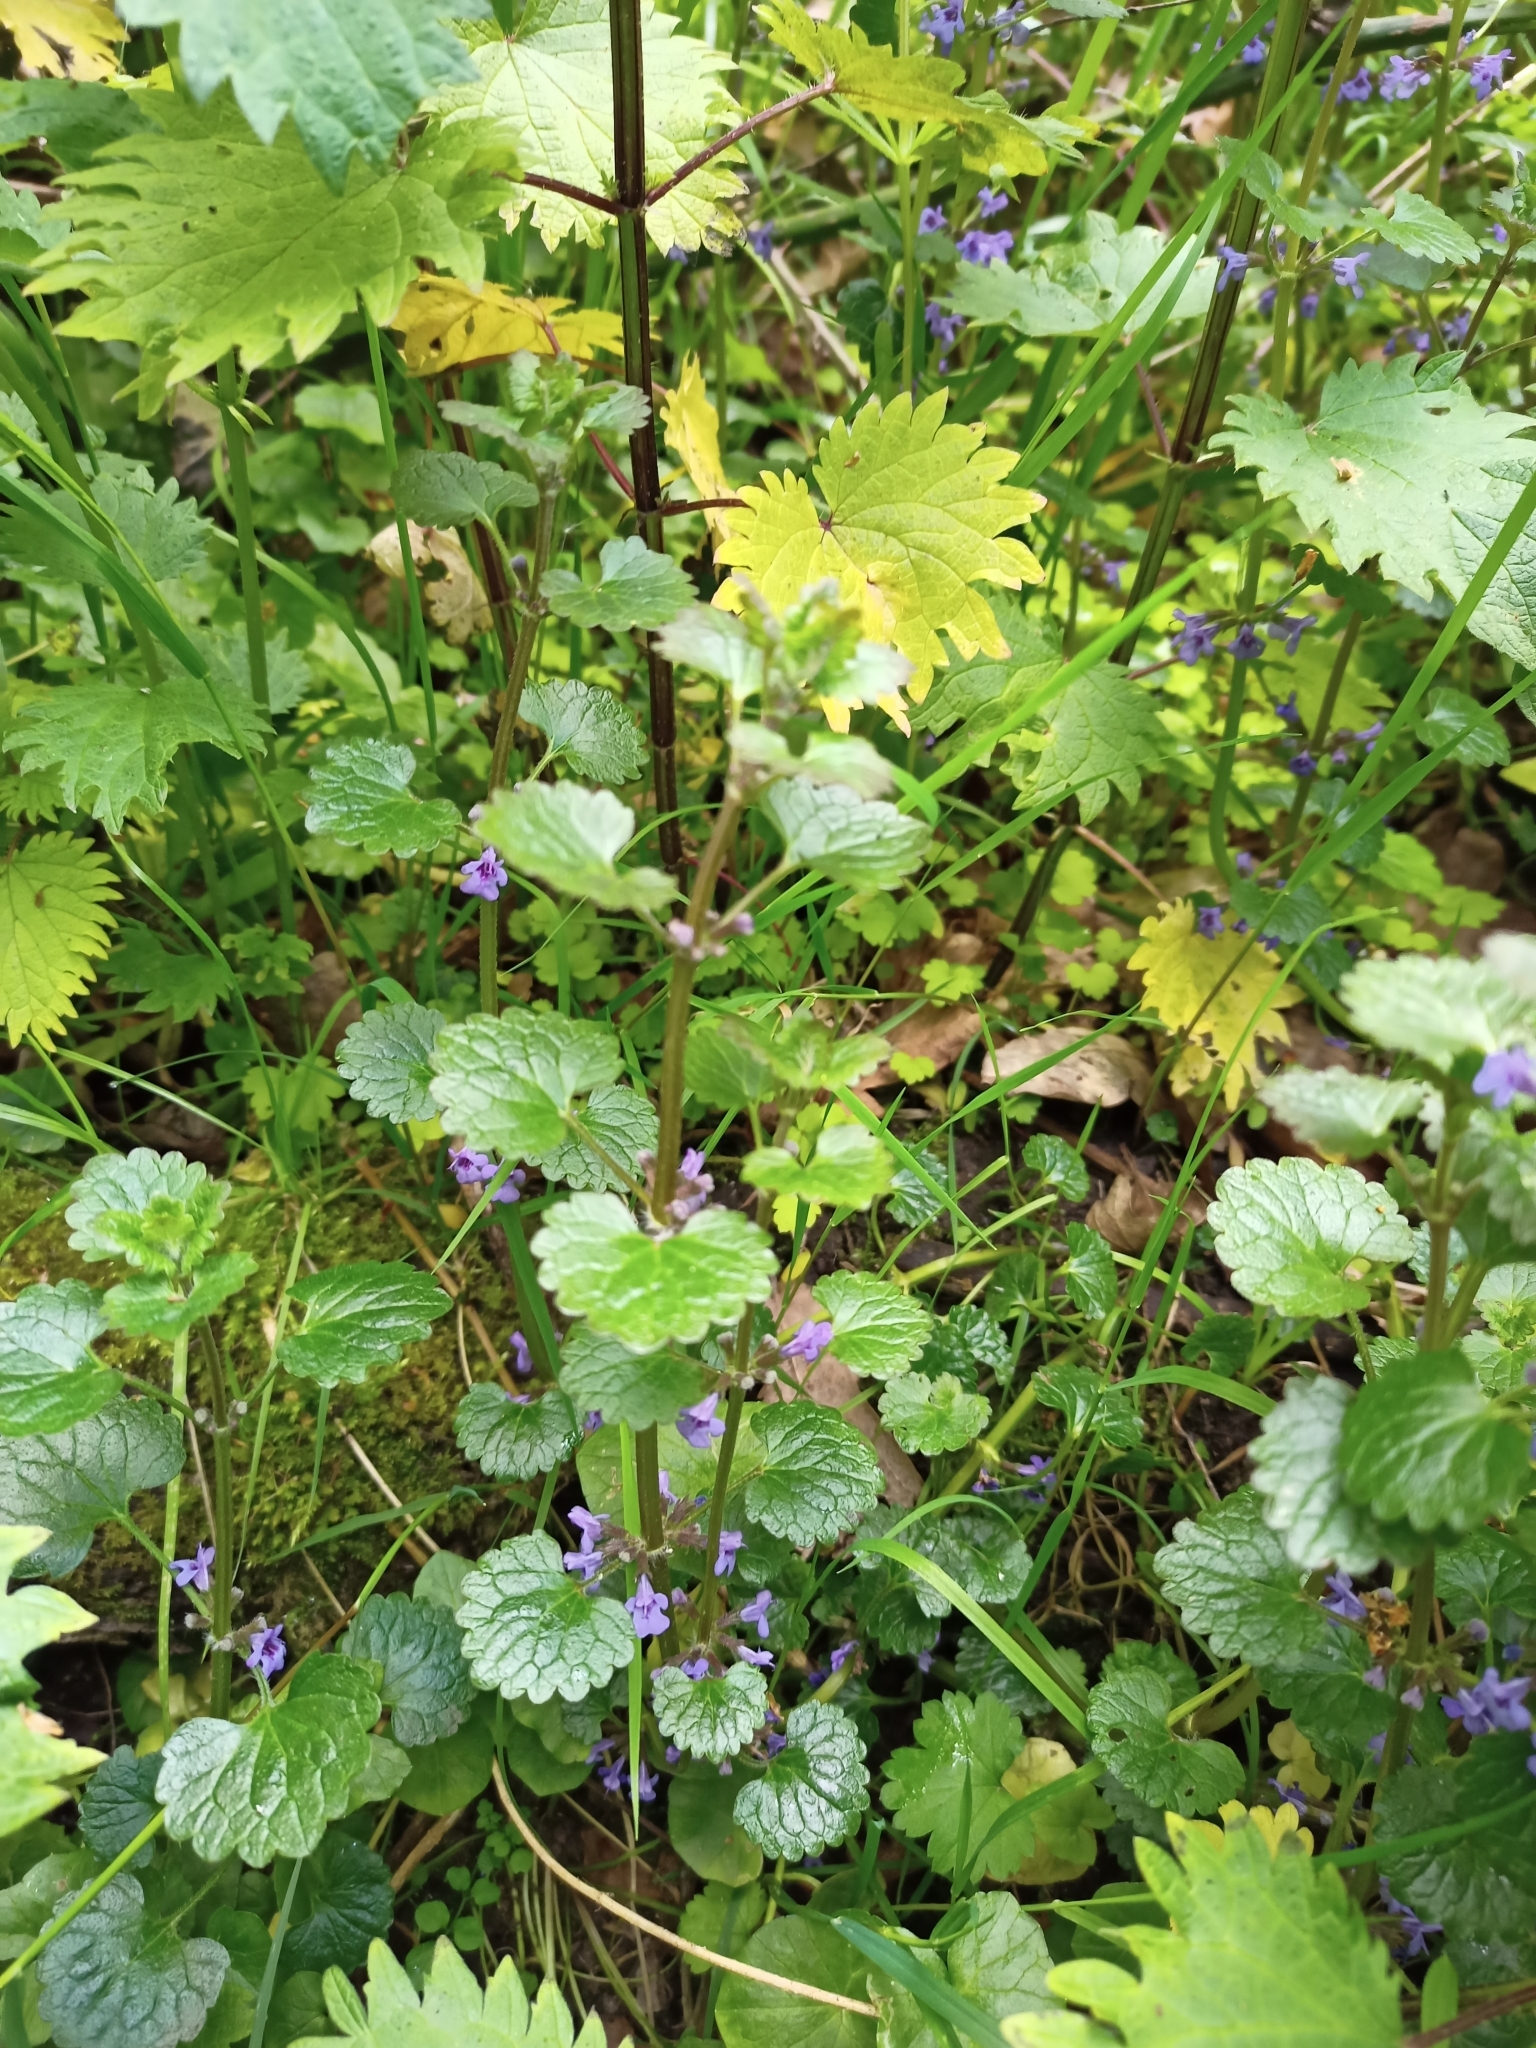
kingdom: Plantae
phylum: Tracheophyta
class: Magnoliopsida
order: Lamiales
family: Lamiaceae
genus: Glechoma
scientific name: Glechoma hederacea
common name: Ground ivy
